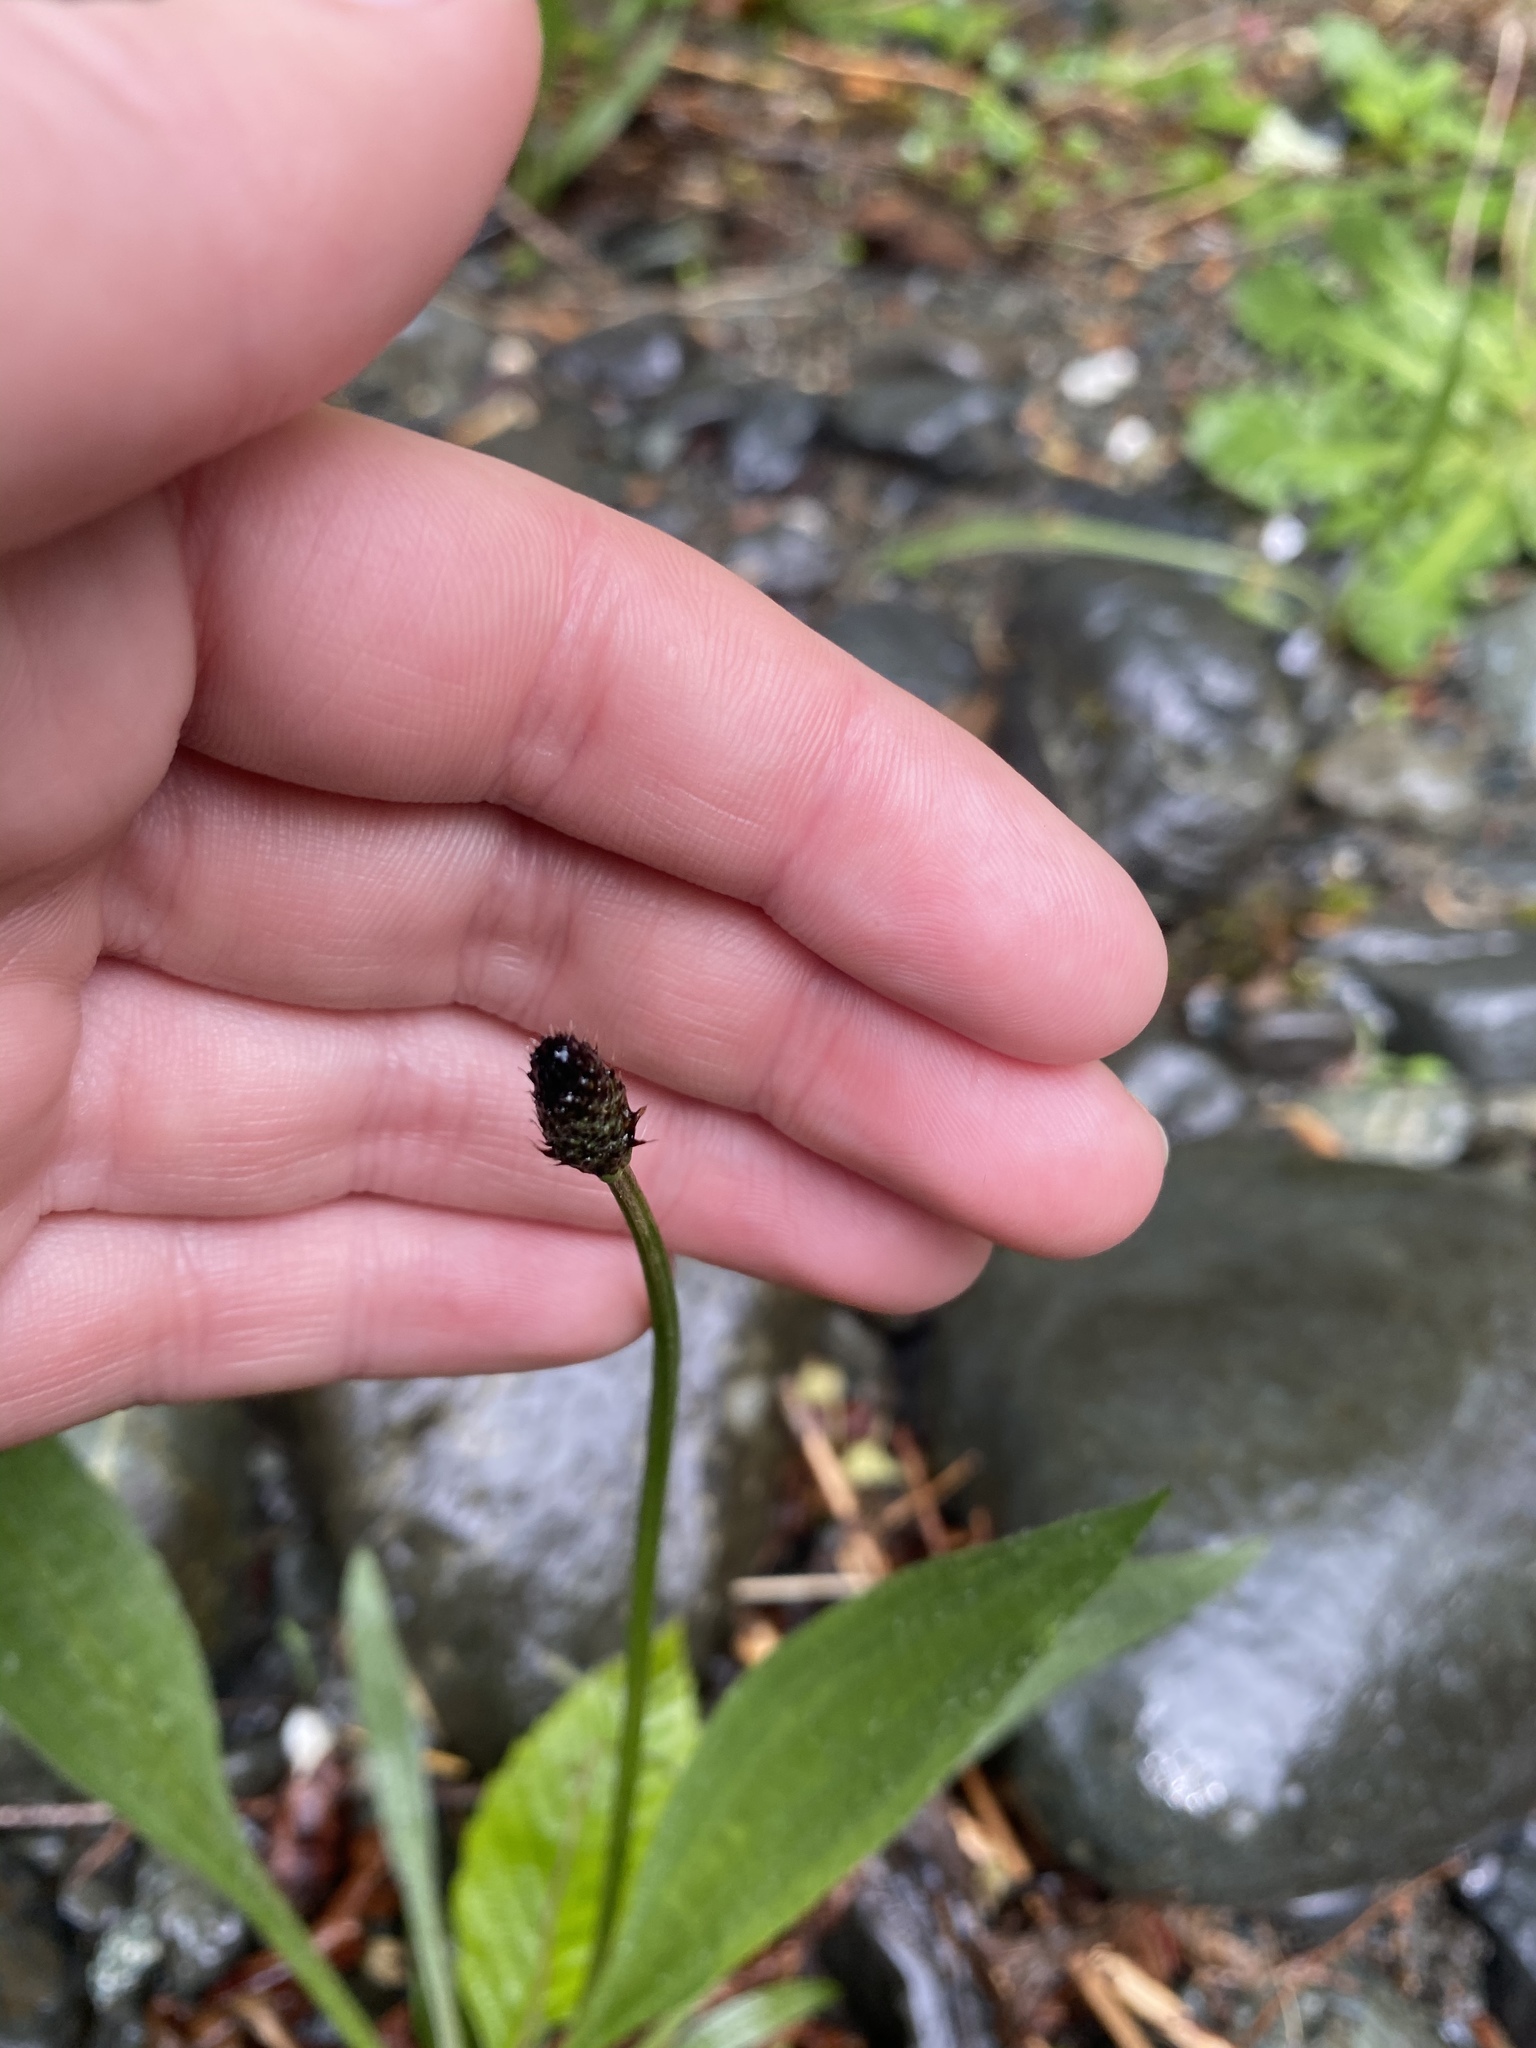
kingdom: Plantae
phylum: Tracheophyta
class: Magnoliopsida
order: Lamiales
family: Plantaginaceae
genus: Plantago
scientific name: Plantago lanceolata
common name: Ribwort plantain
